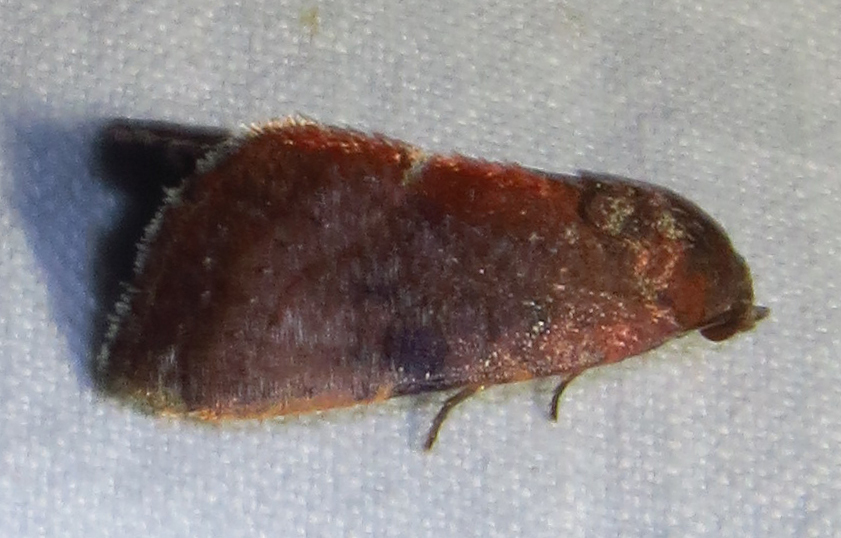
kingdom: Animalia
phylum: Arthropoda
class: Insecta
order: Lepidoptera
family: Noctuidae
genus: Galgula
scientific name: Galgula partita
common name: Wedgeling
